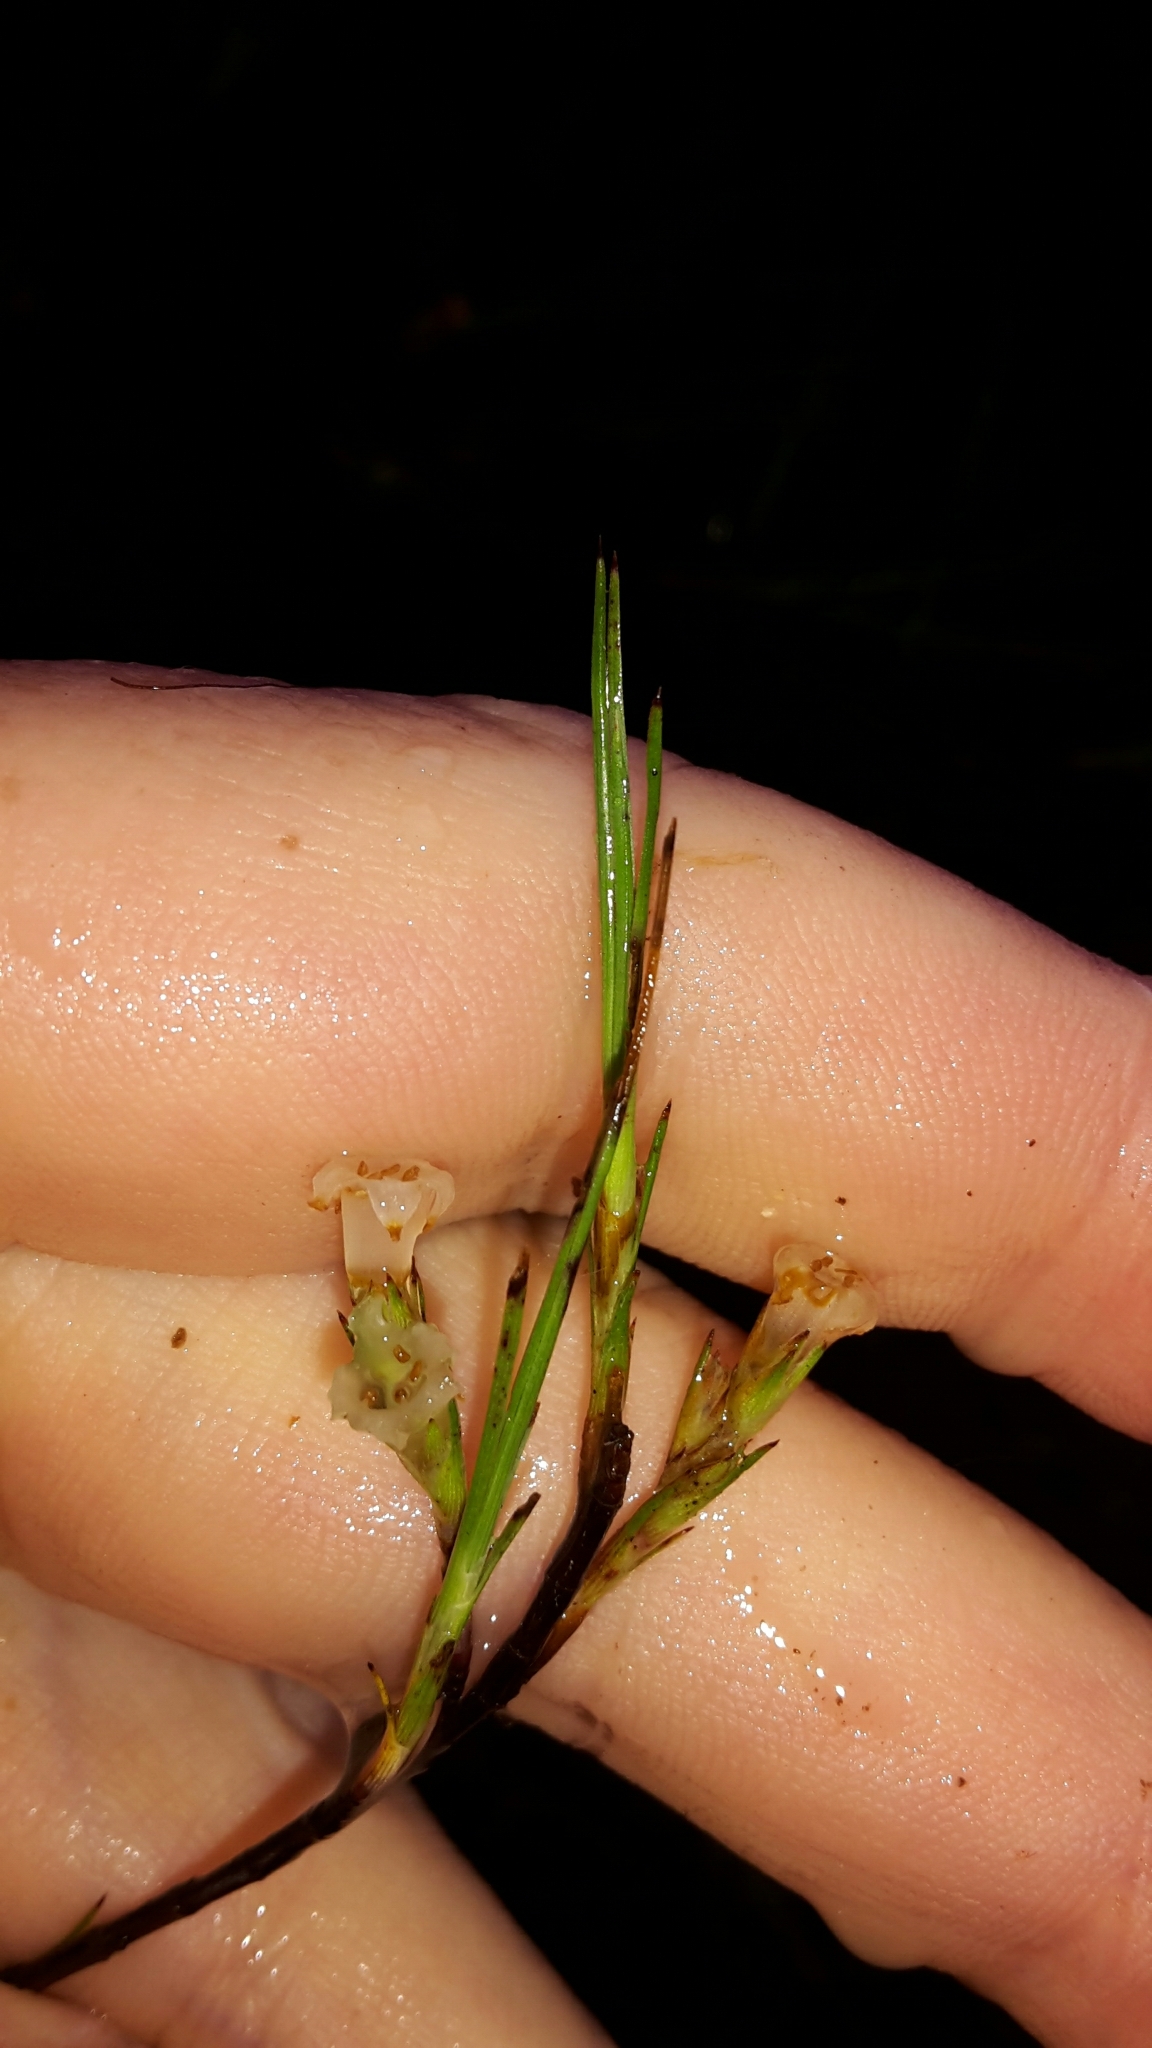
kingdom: Plantae
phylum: Tracheophyta
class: Magnoliopsida
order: Ericales
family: Ericaceae
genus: Dracophyllum
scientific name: Dracophyllum subulatum
